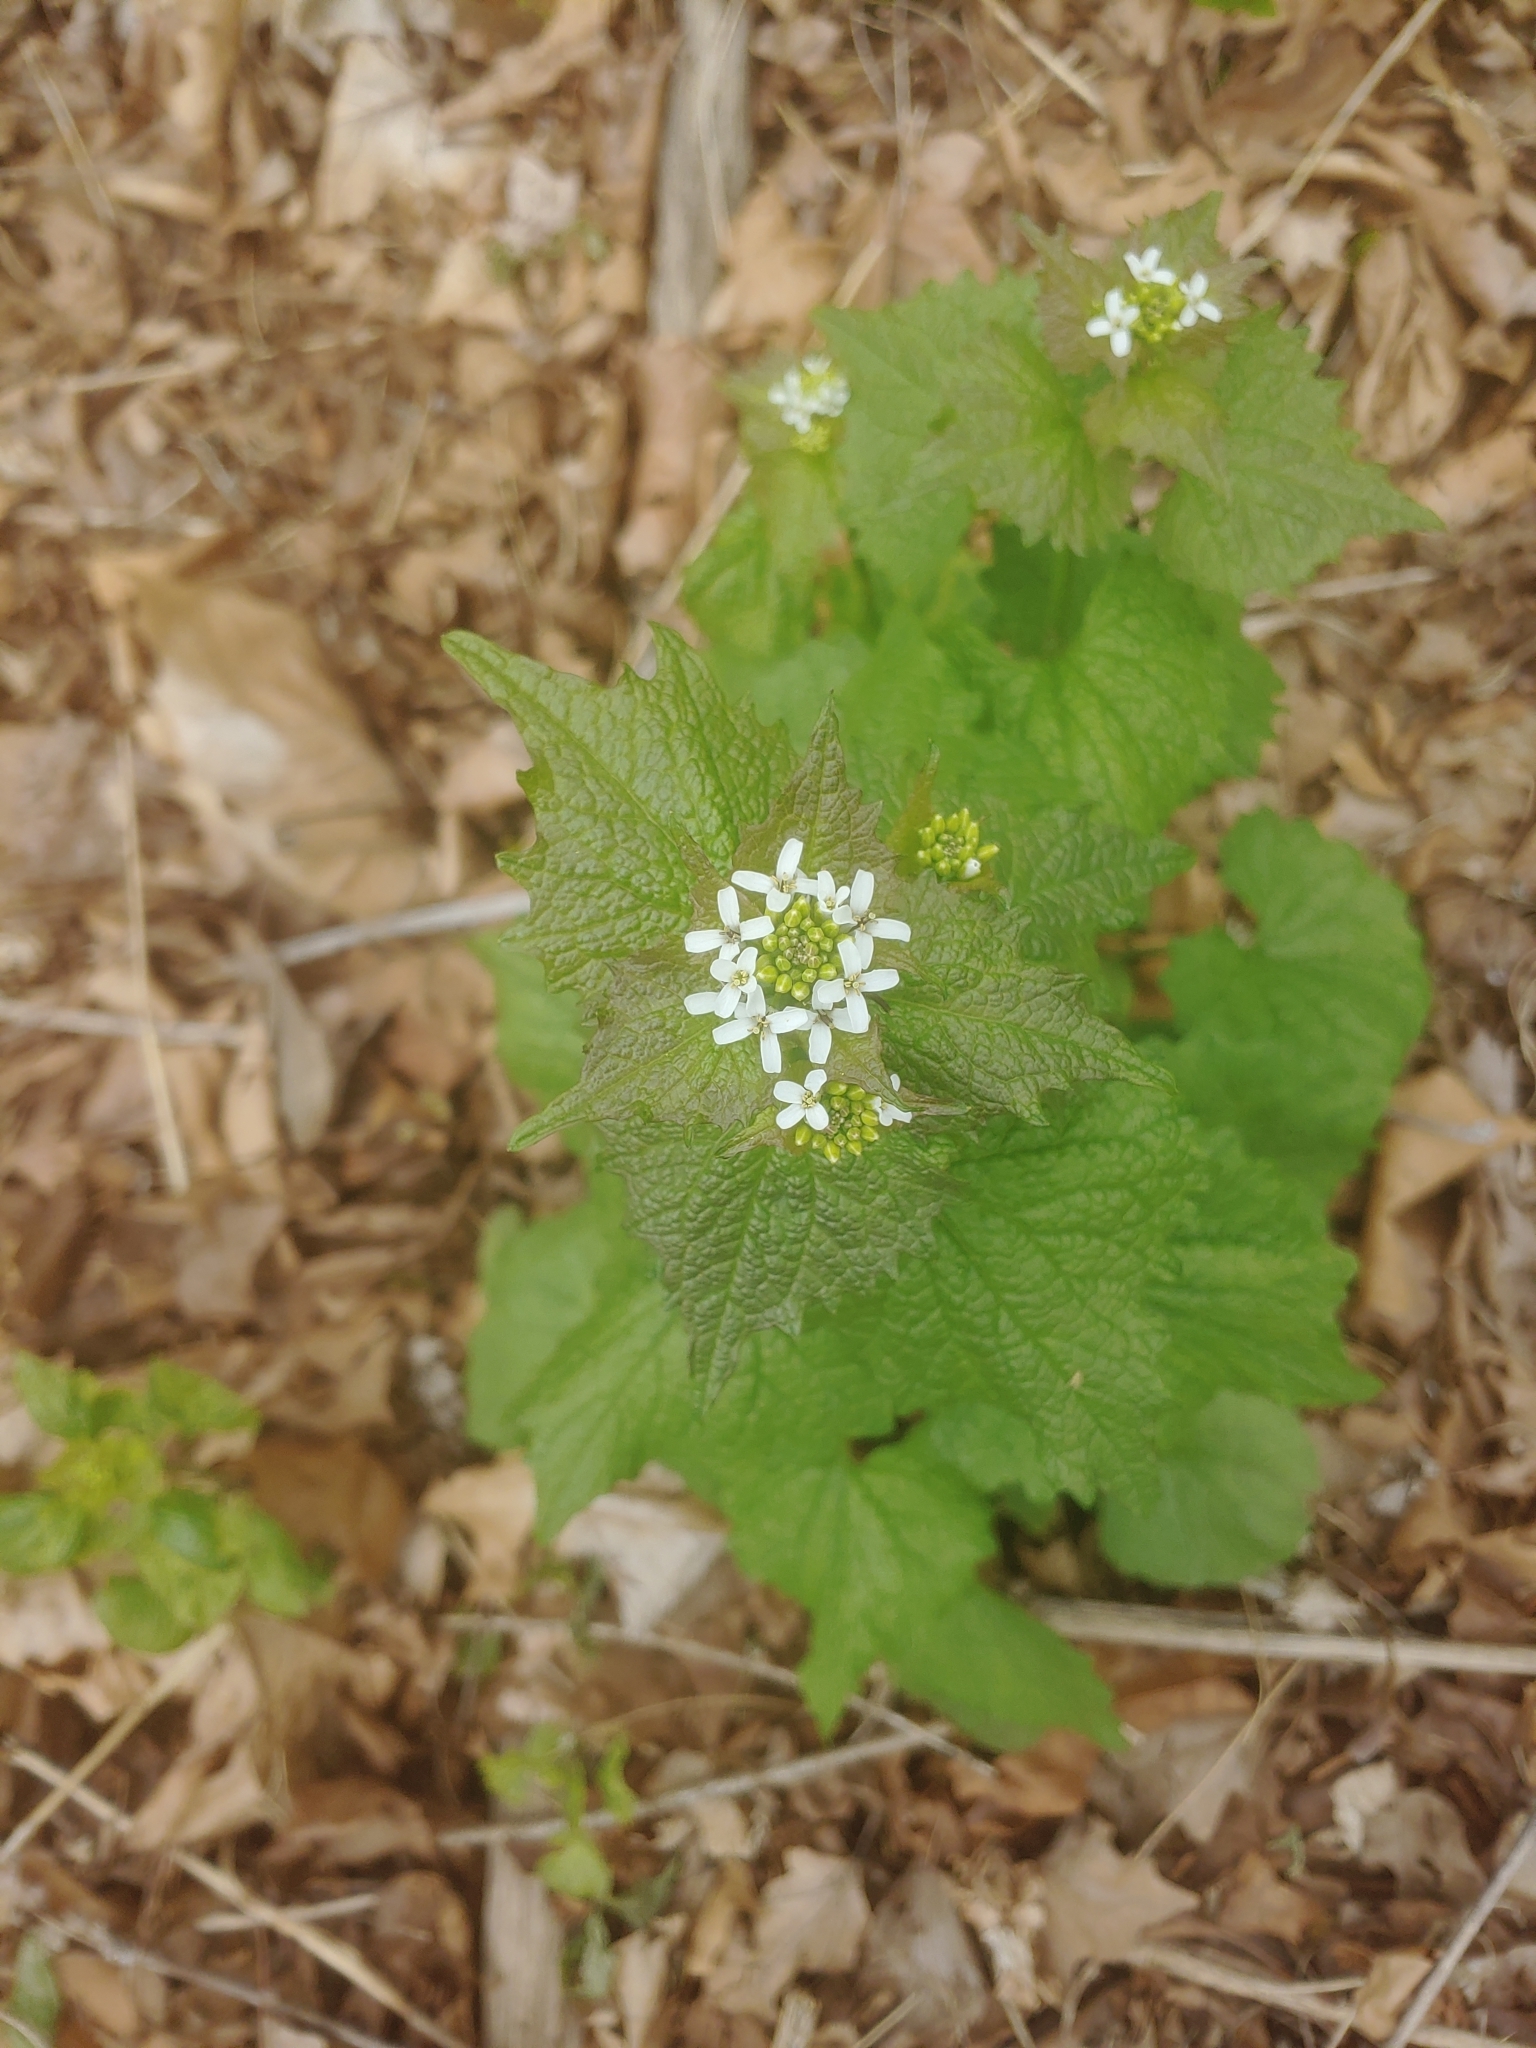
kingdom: Plantae
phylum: Tracheophyta
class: Magnoliopsida
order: Brassicales
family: Brassicaceae
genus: Alliaria
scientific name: Alliaria petiolata
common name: Garlic mustard
